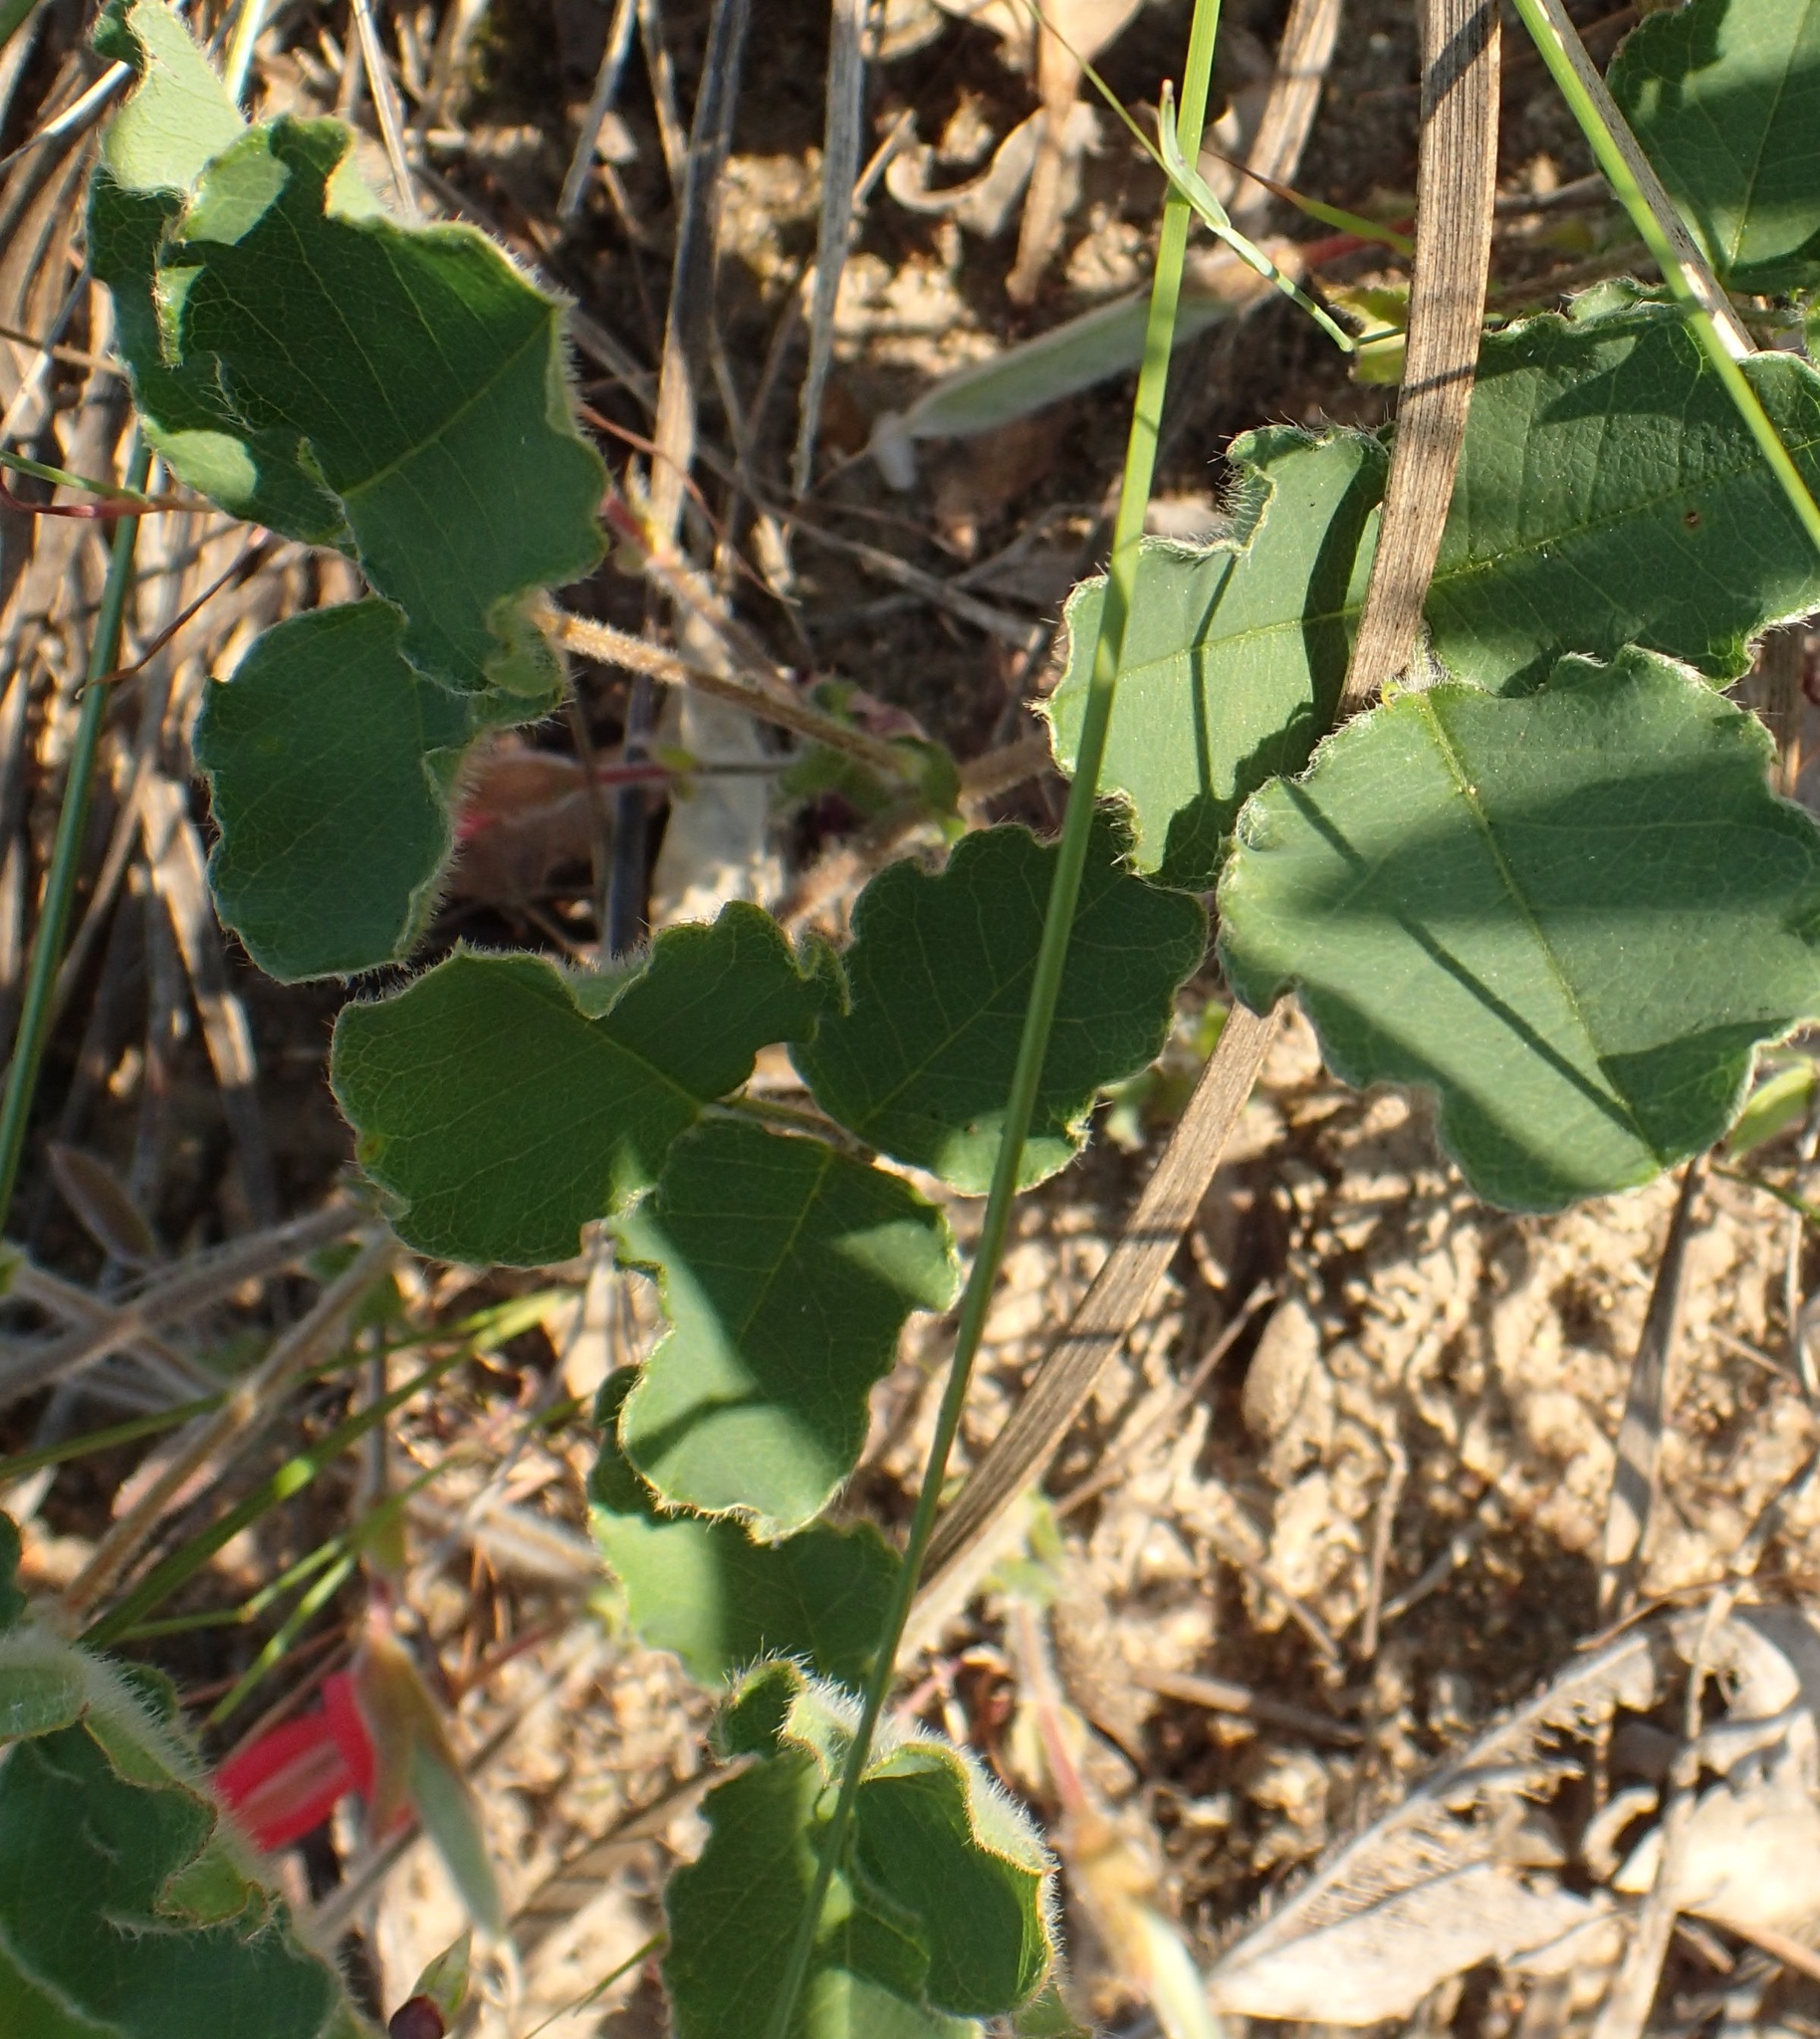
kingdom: Plantae
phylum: Tracheophyta
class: Magnoliopsida
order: Fabales
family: Fabaceae
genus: Kennedia
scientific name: Kennedia prostrata
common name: Running-postman
